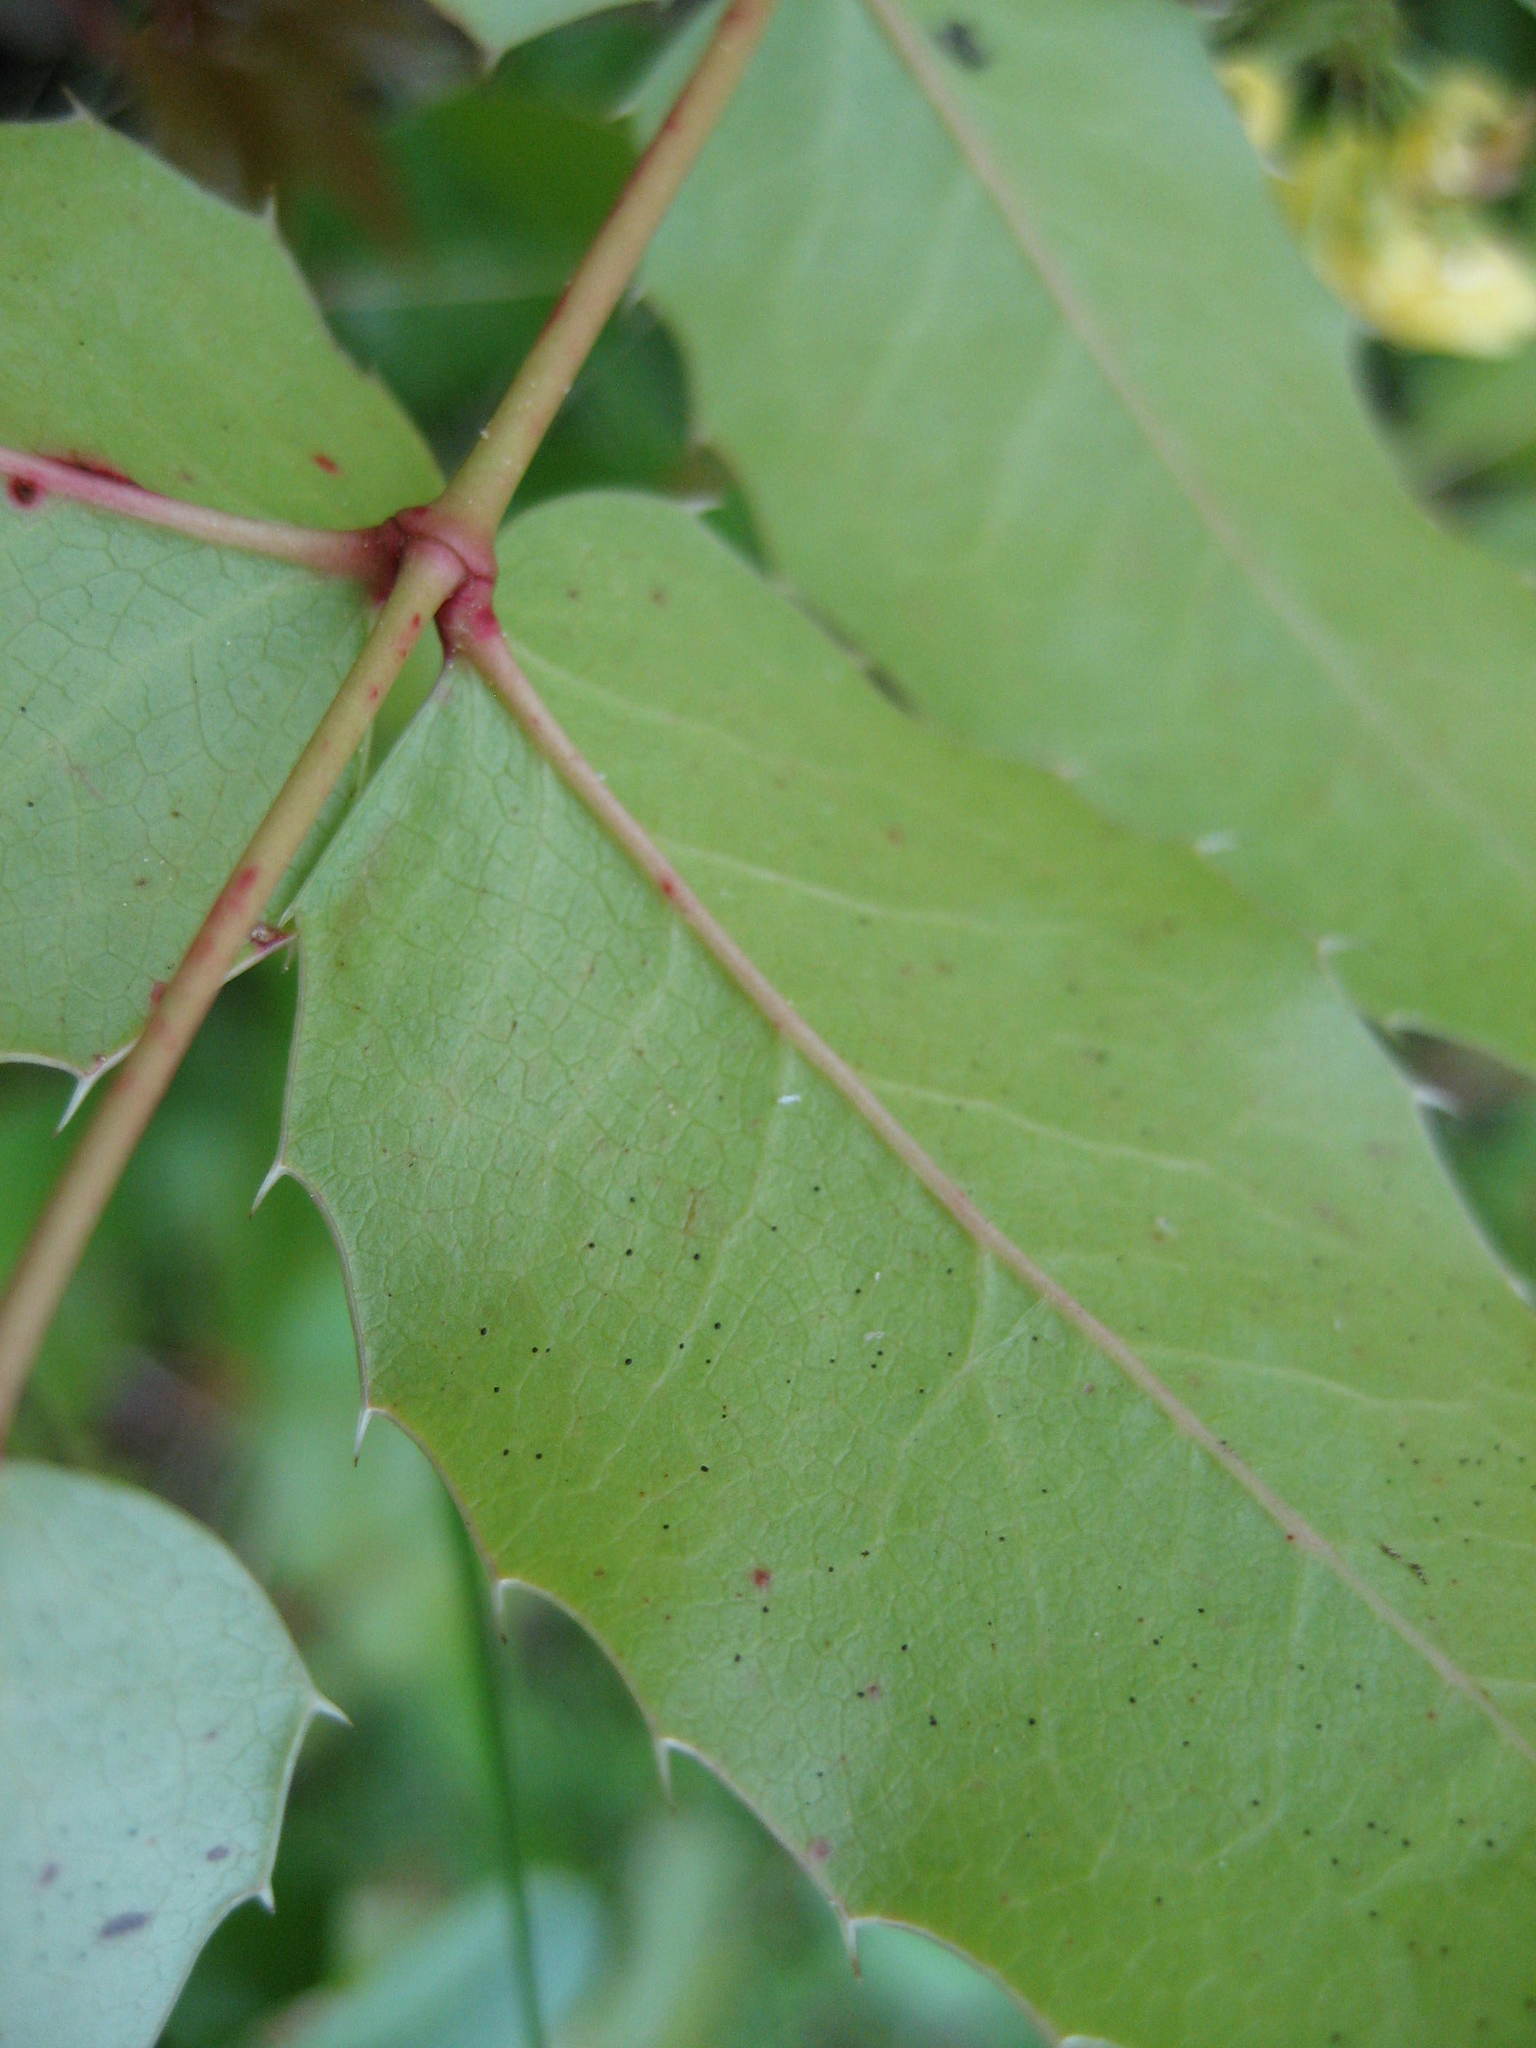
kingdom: Plantae
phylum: Tracheophyta
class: Magnoliopsida
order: Ranunculales
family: Berberidaceae
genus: Mahonia
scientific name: Mahonia aquifolium
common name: Oregon-grape
